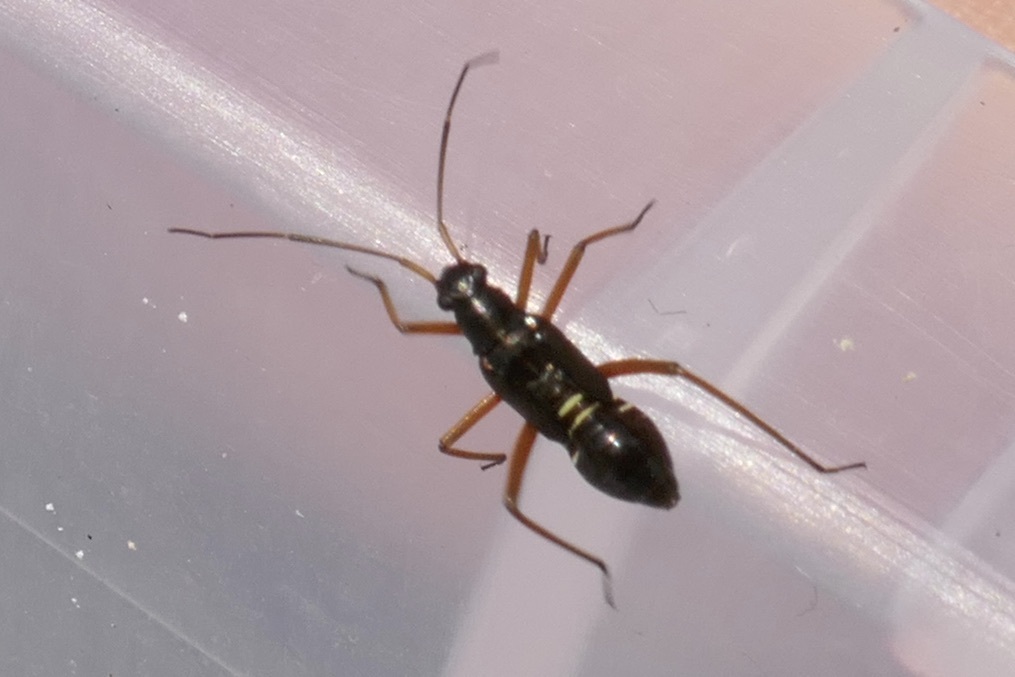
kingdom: Animalia
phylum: Arthropoda
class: Insecta
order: Hemiptera
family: Miridae
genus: Miris
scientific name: Miris striatus
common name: Fine streaked bugkin
